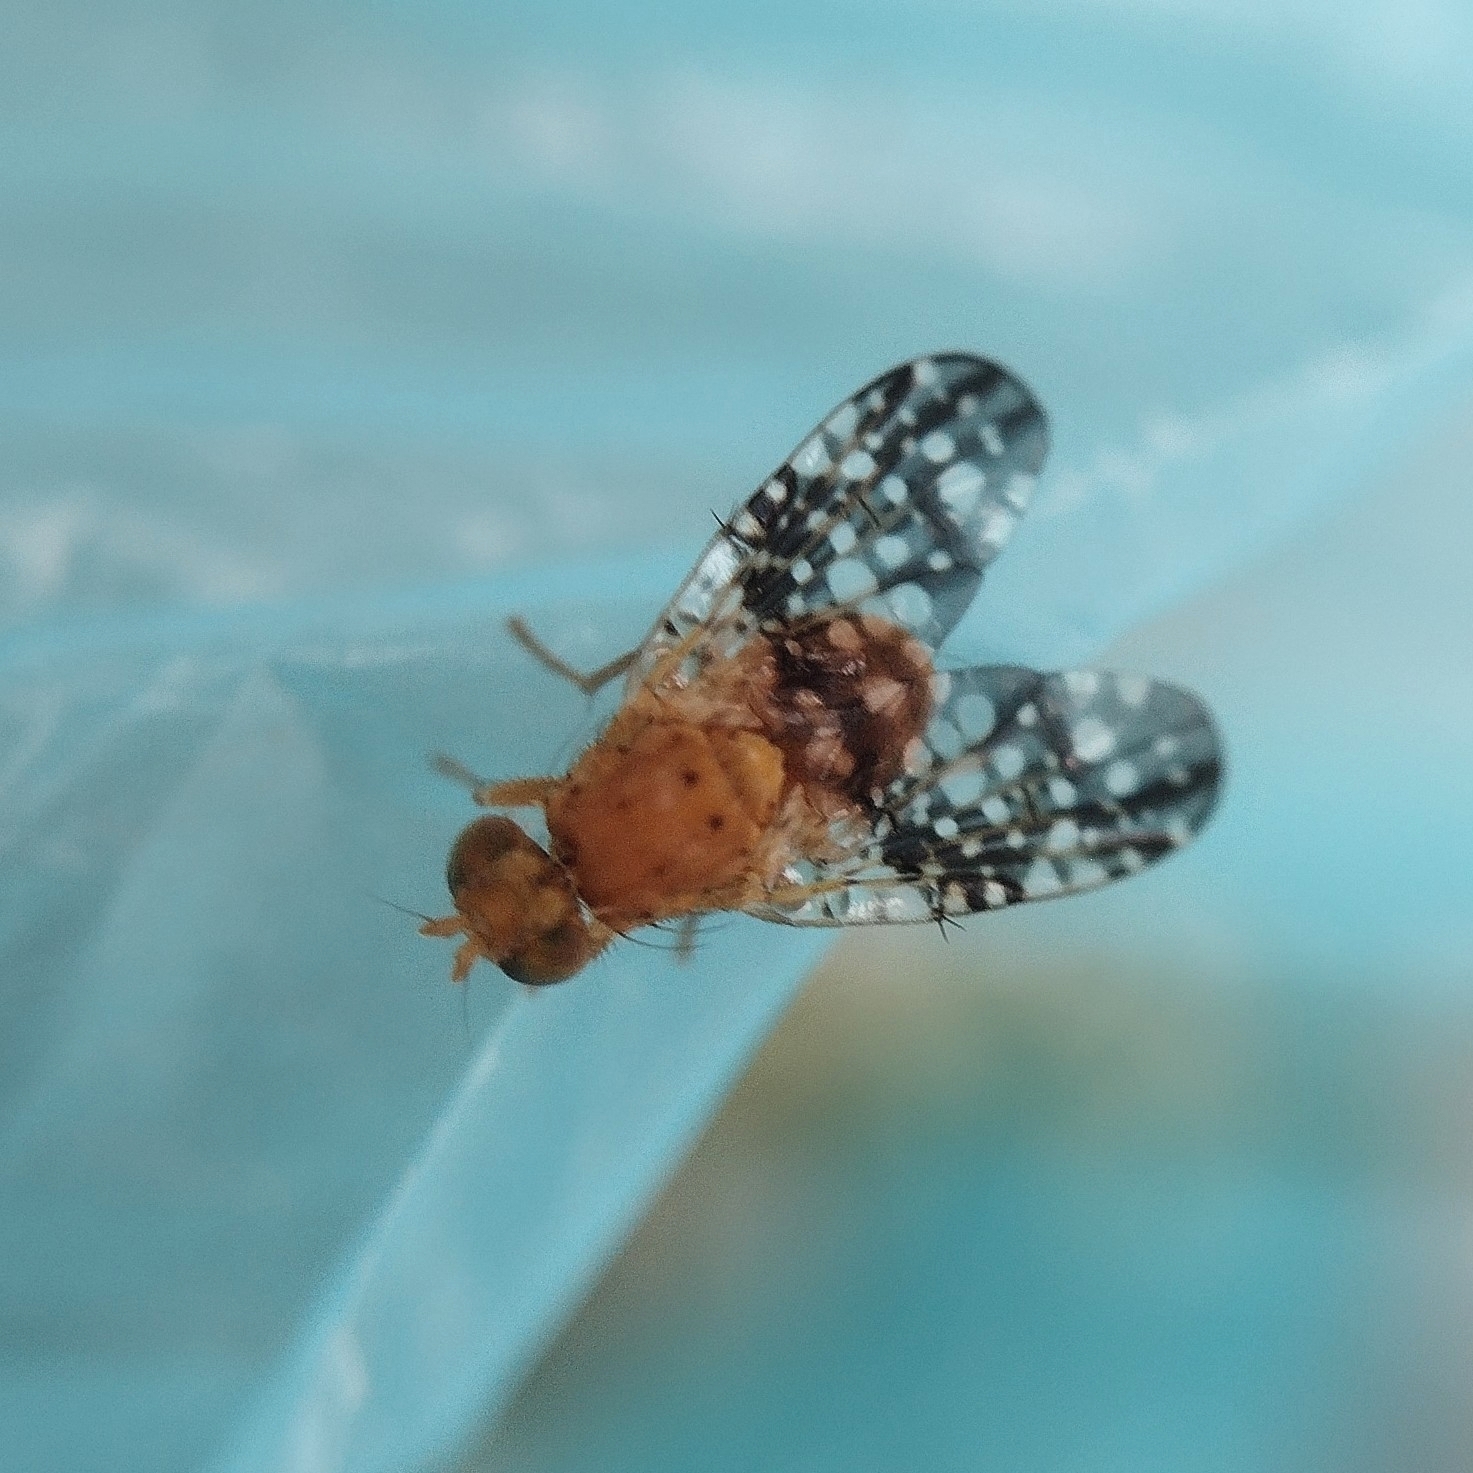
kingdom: Animalia
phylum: Arthropoda
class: Insecta
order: Diptera
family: Tephritidae
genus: Acinia
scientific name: Acinia corniculata
